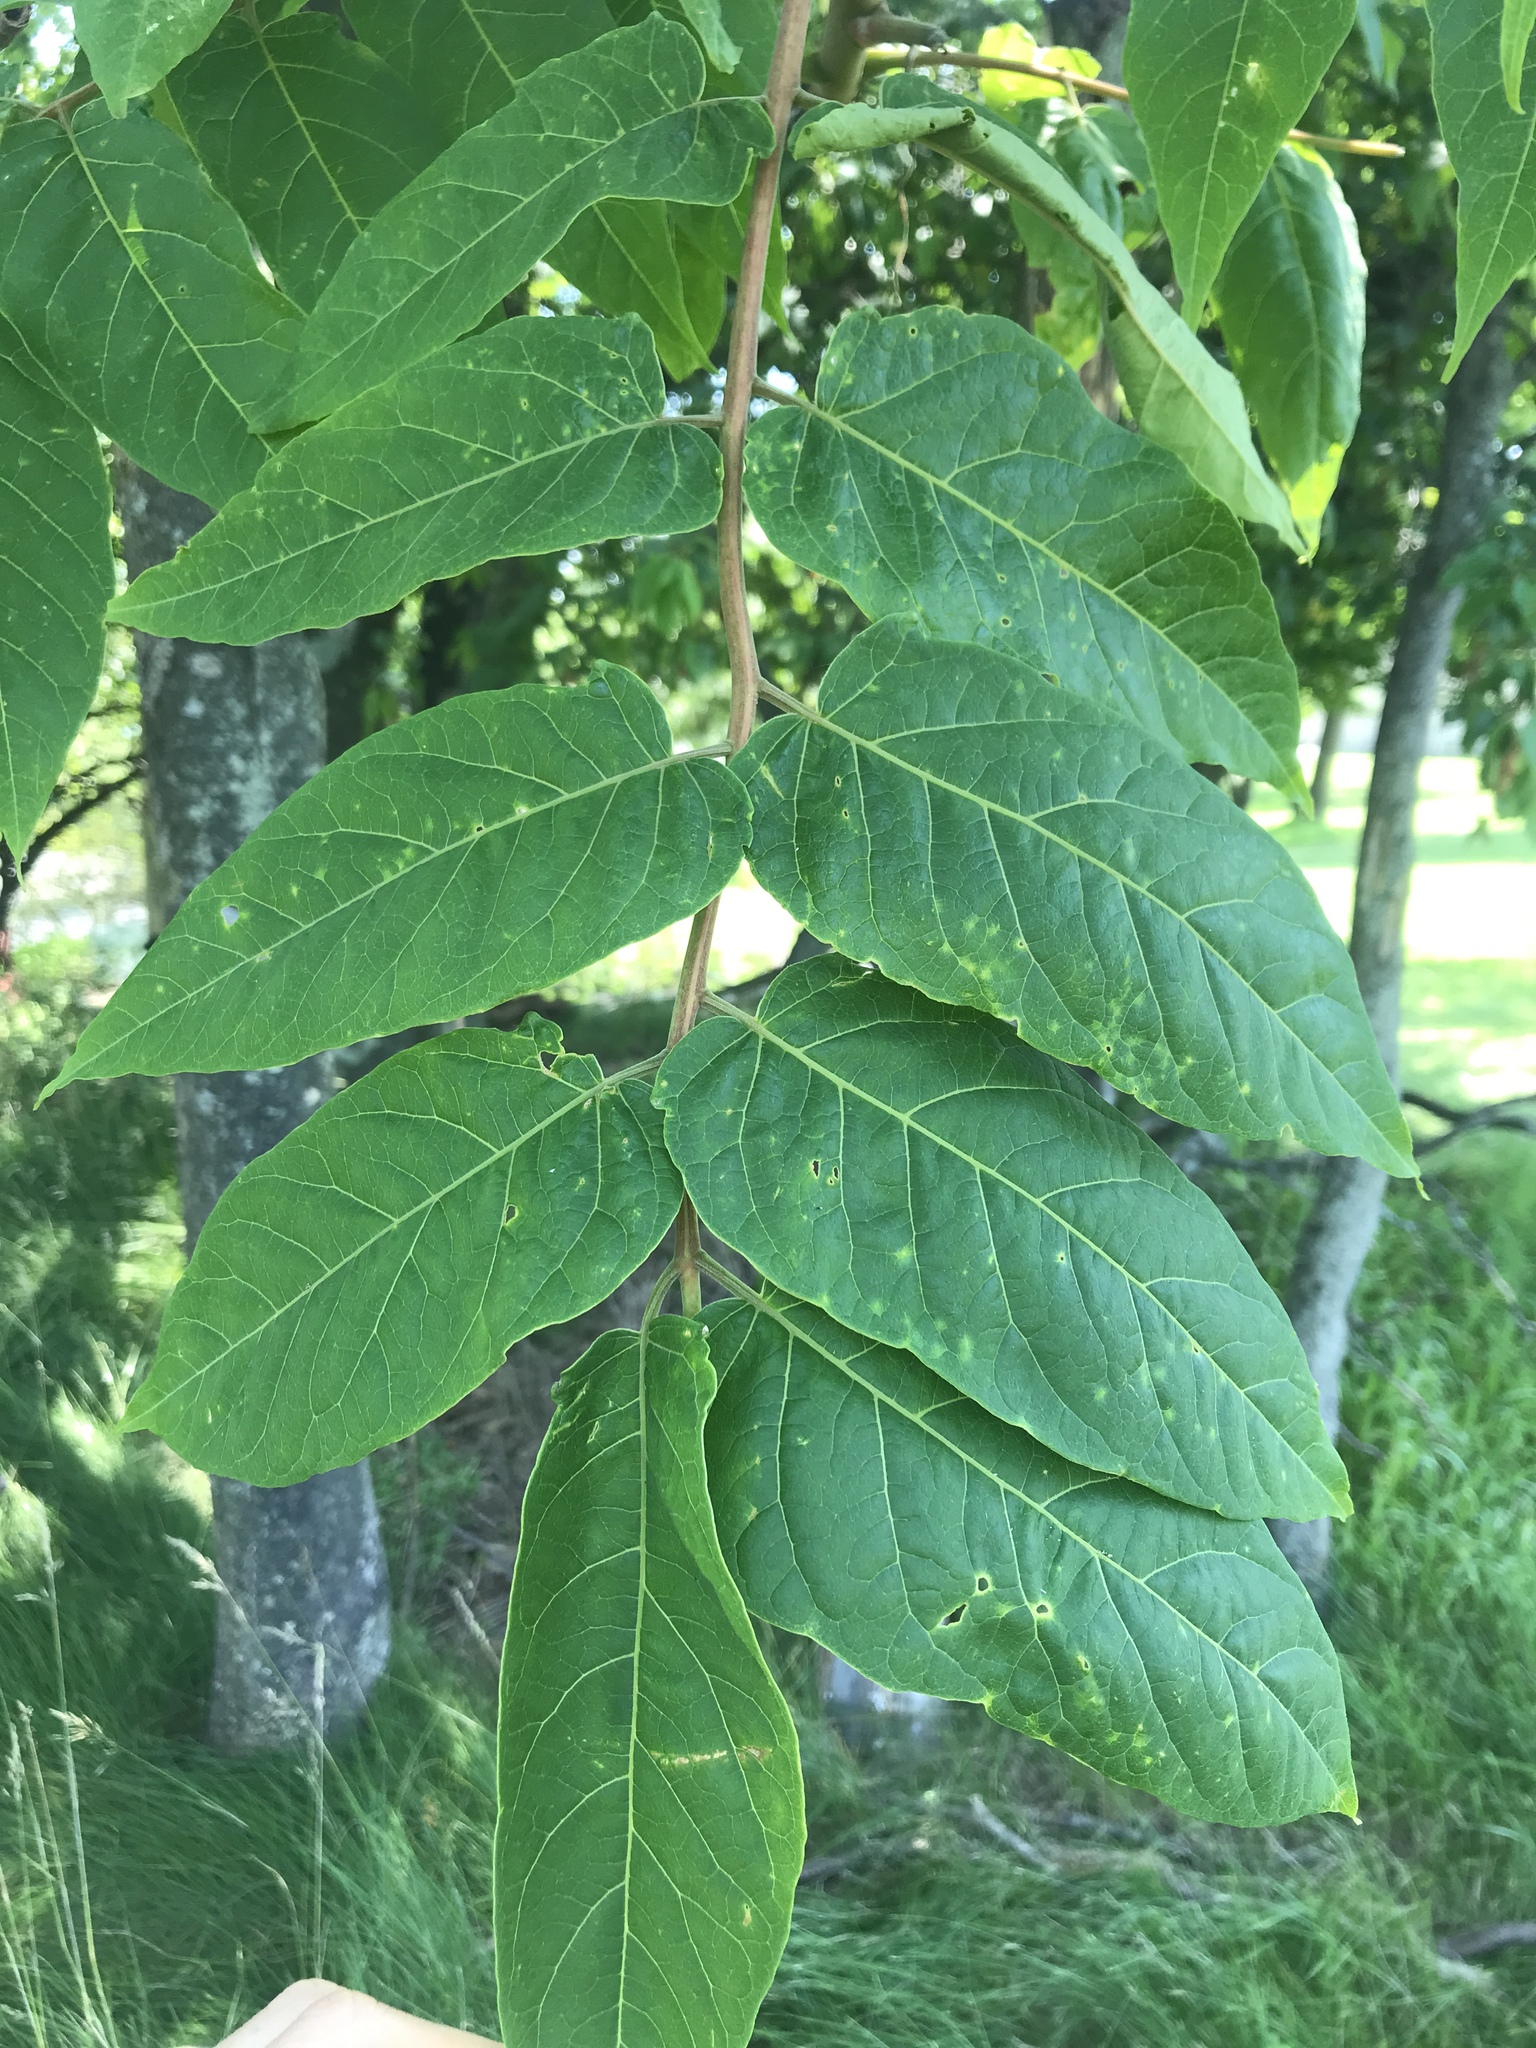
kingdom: Plantae
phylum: Tracheophyta
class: Magnoliopsida
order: Sapindales
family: Simaroubaceae
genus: Ailanthus
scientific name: Ailanthus altissima
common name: Tree-of-heaven
